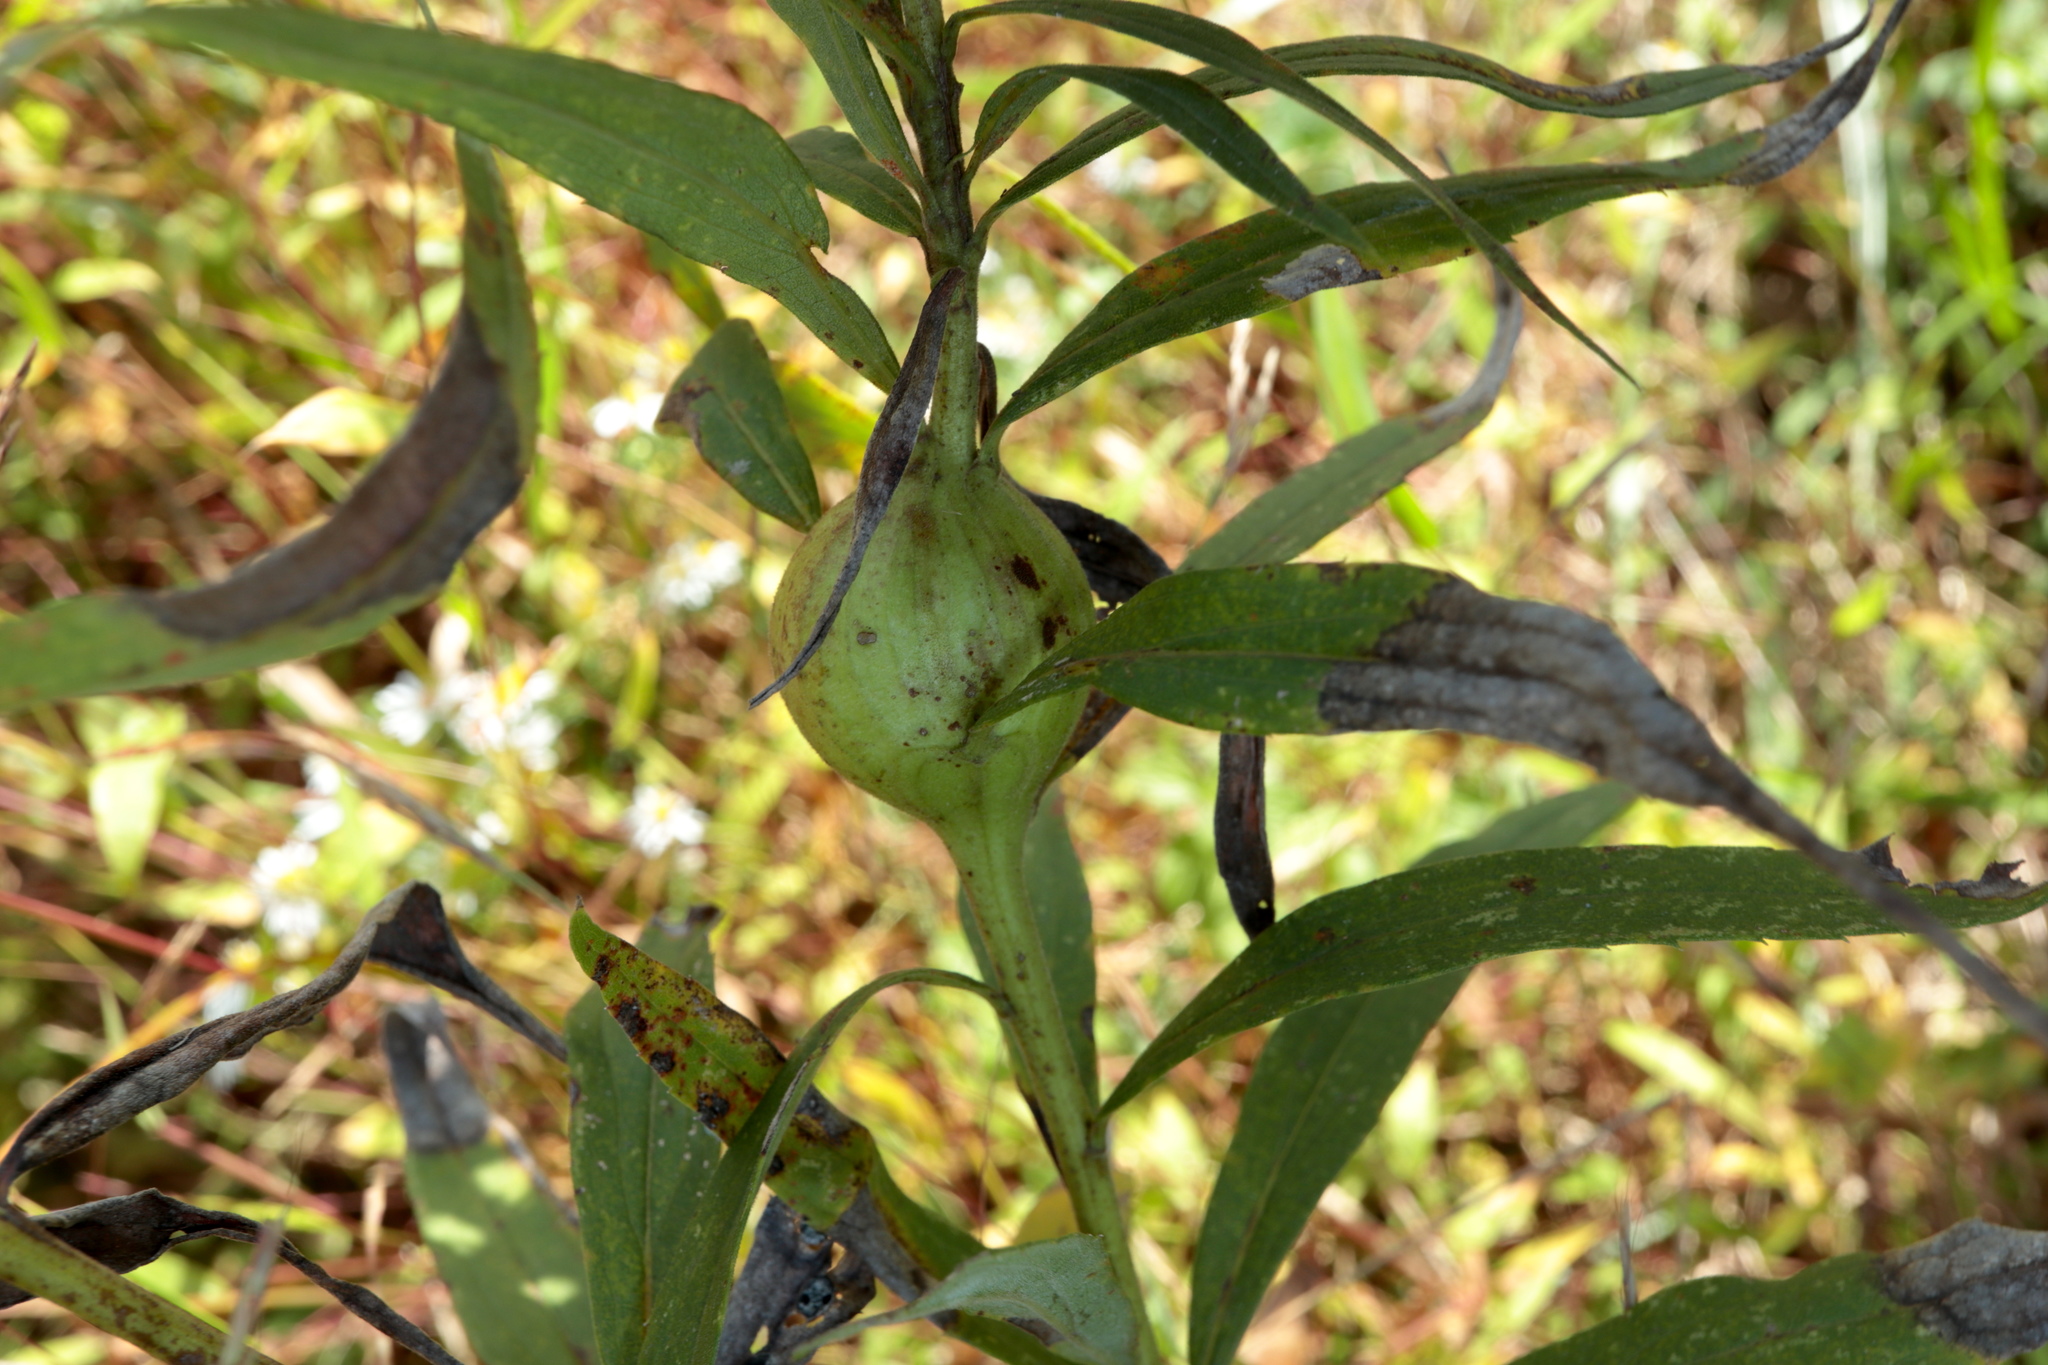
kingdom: Animalia
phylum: Arthropoda
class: Insecta
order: Diptera
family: Tephritidae
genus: Eurosta
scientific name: Eurosta solidaginis
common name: Goldenrod gall fly
